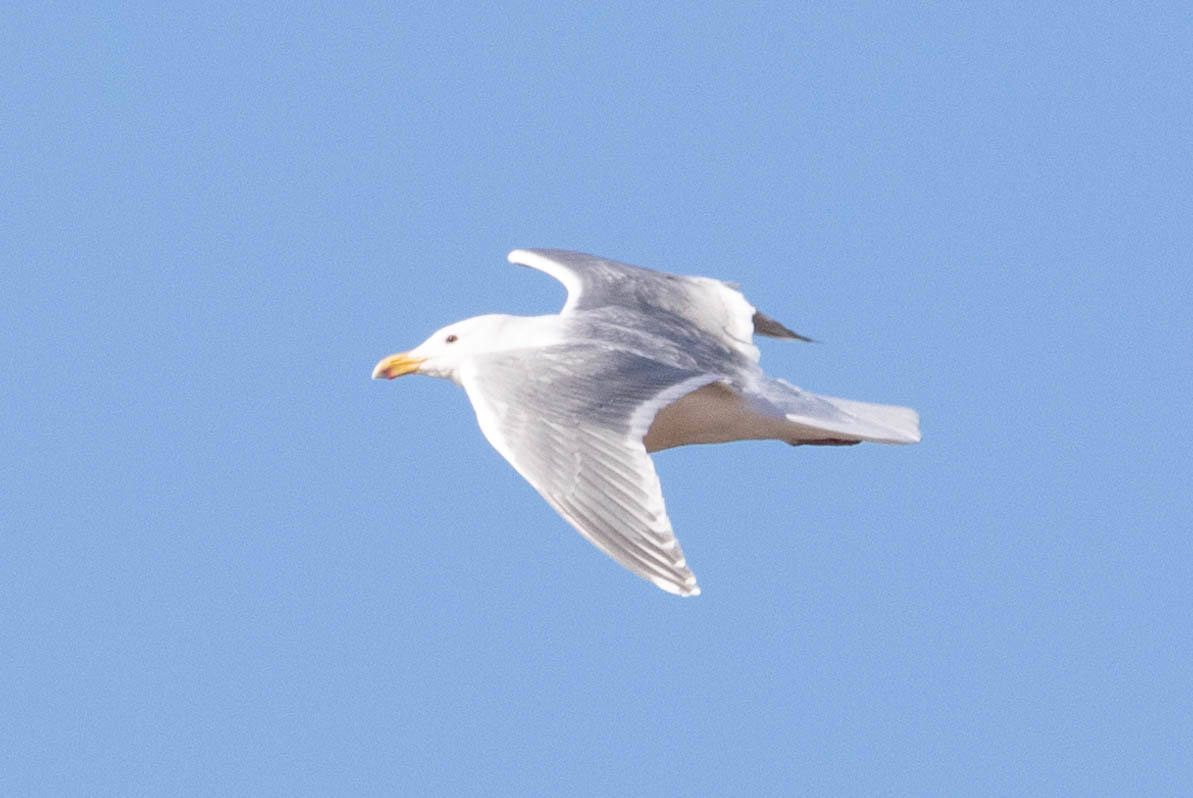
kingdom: Animalia
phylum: Chordata
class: Aves
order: Charadriiformes
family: Laridae
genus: Larus
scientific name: Larus glaucescens
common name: Glaucous-winged gull
